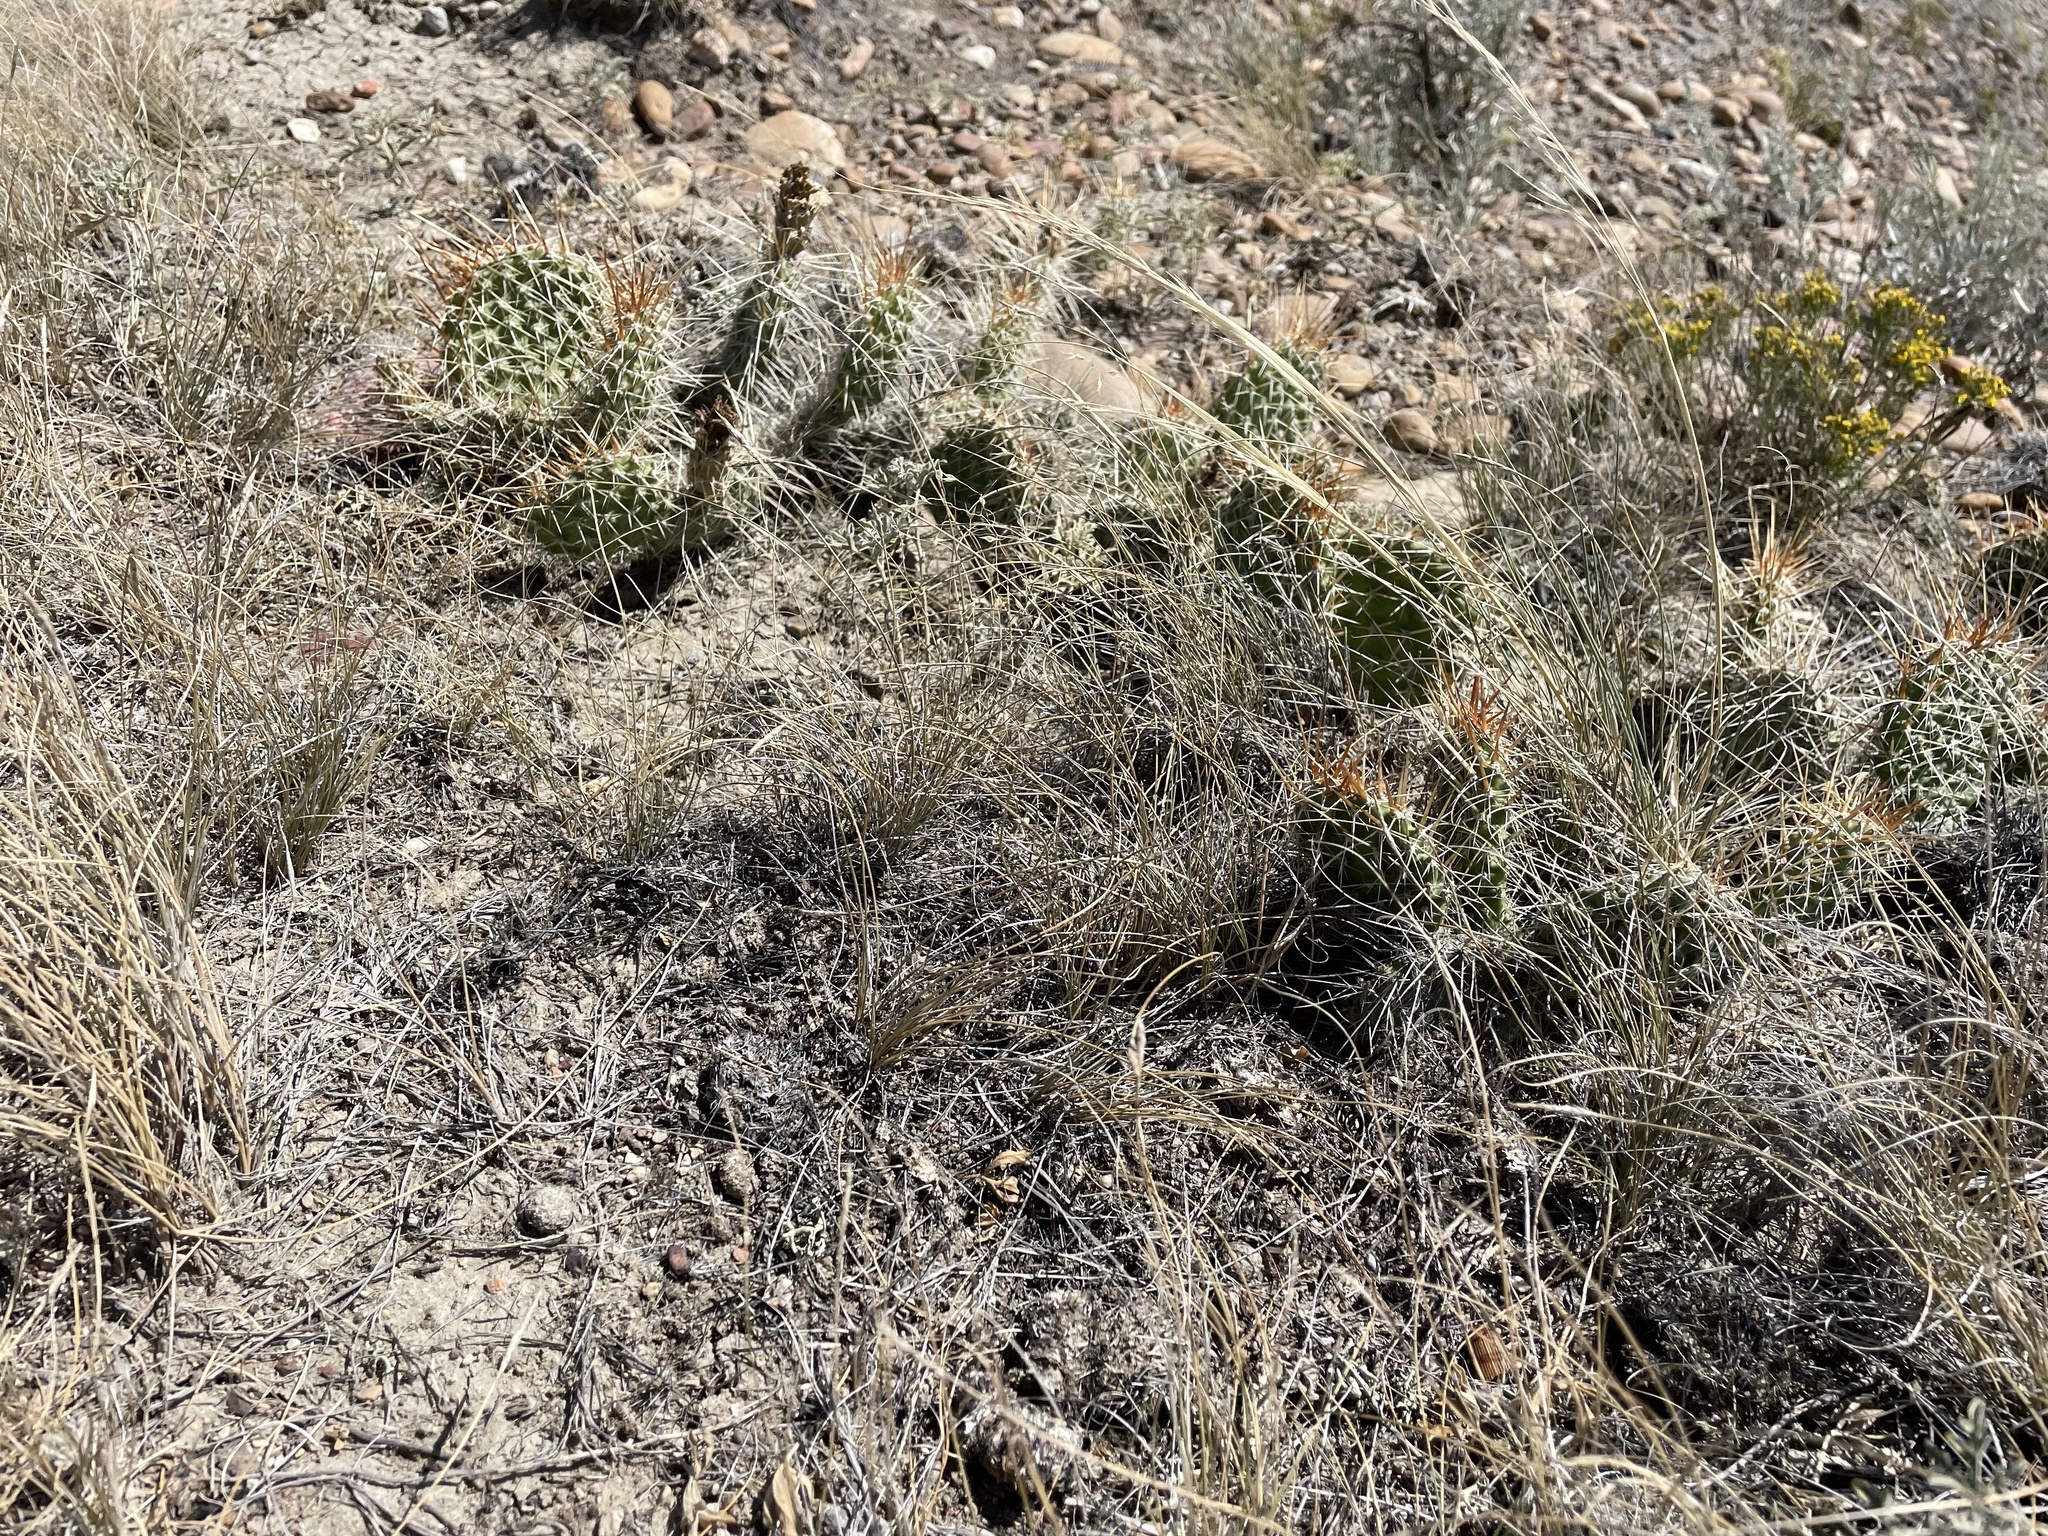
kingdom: Plantae
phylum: Tracheophyta
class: Magnoliopsida
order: Caryophyllales
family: Cactaceae
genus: Opuntia
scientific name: Opuntia polyacantha
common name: Plains prickly-pear
